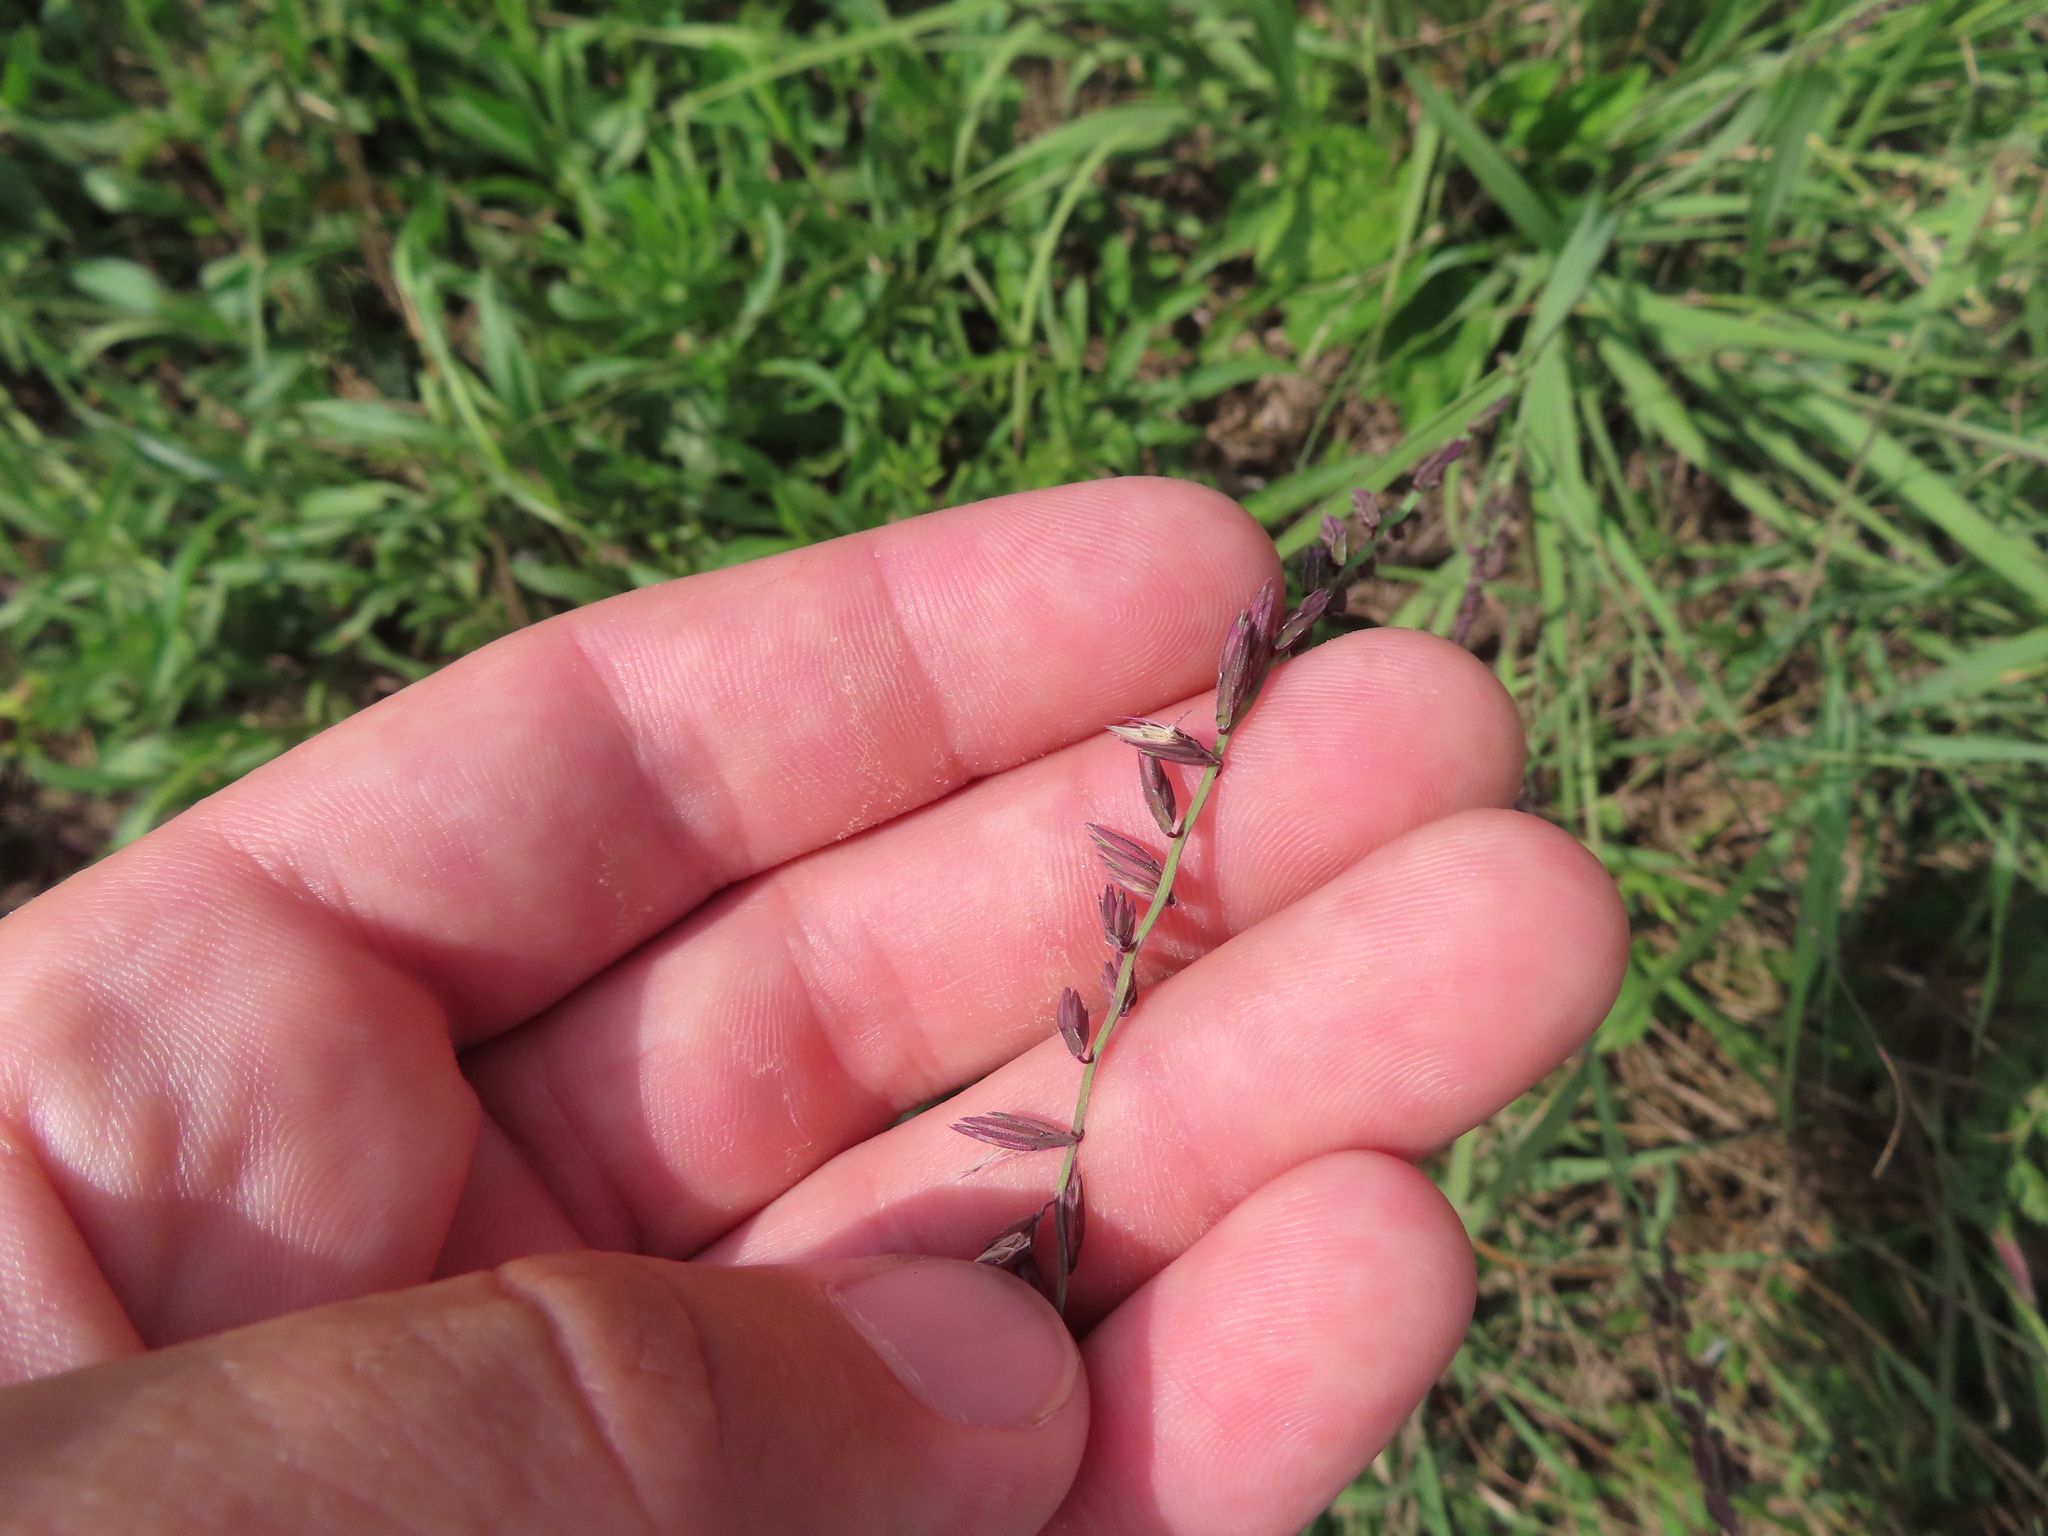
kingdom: Plantae
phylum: Tracheophyta
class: Liliopsida
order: Poales
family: Poaceae
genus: Bouteloua
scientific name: Bouteloua curtipendula
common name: Side-oats grama
